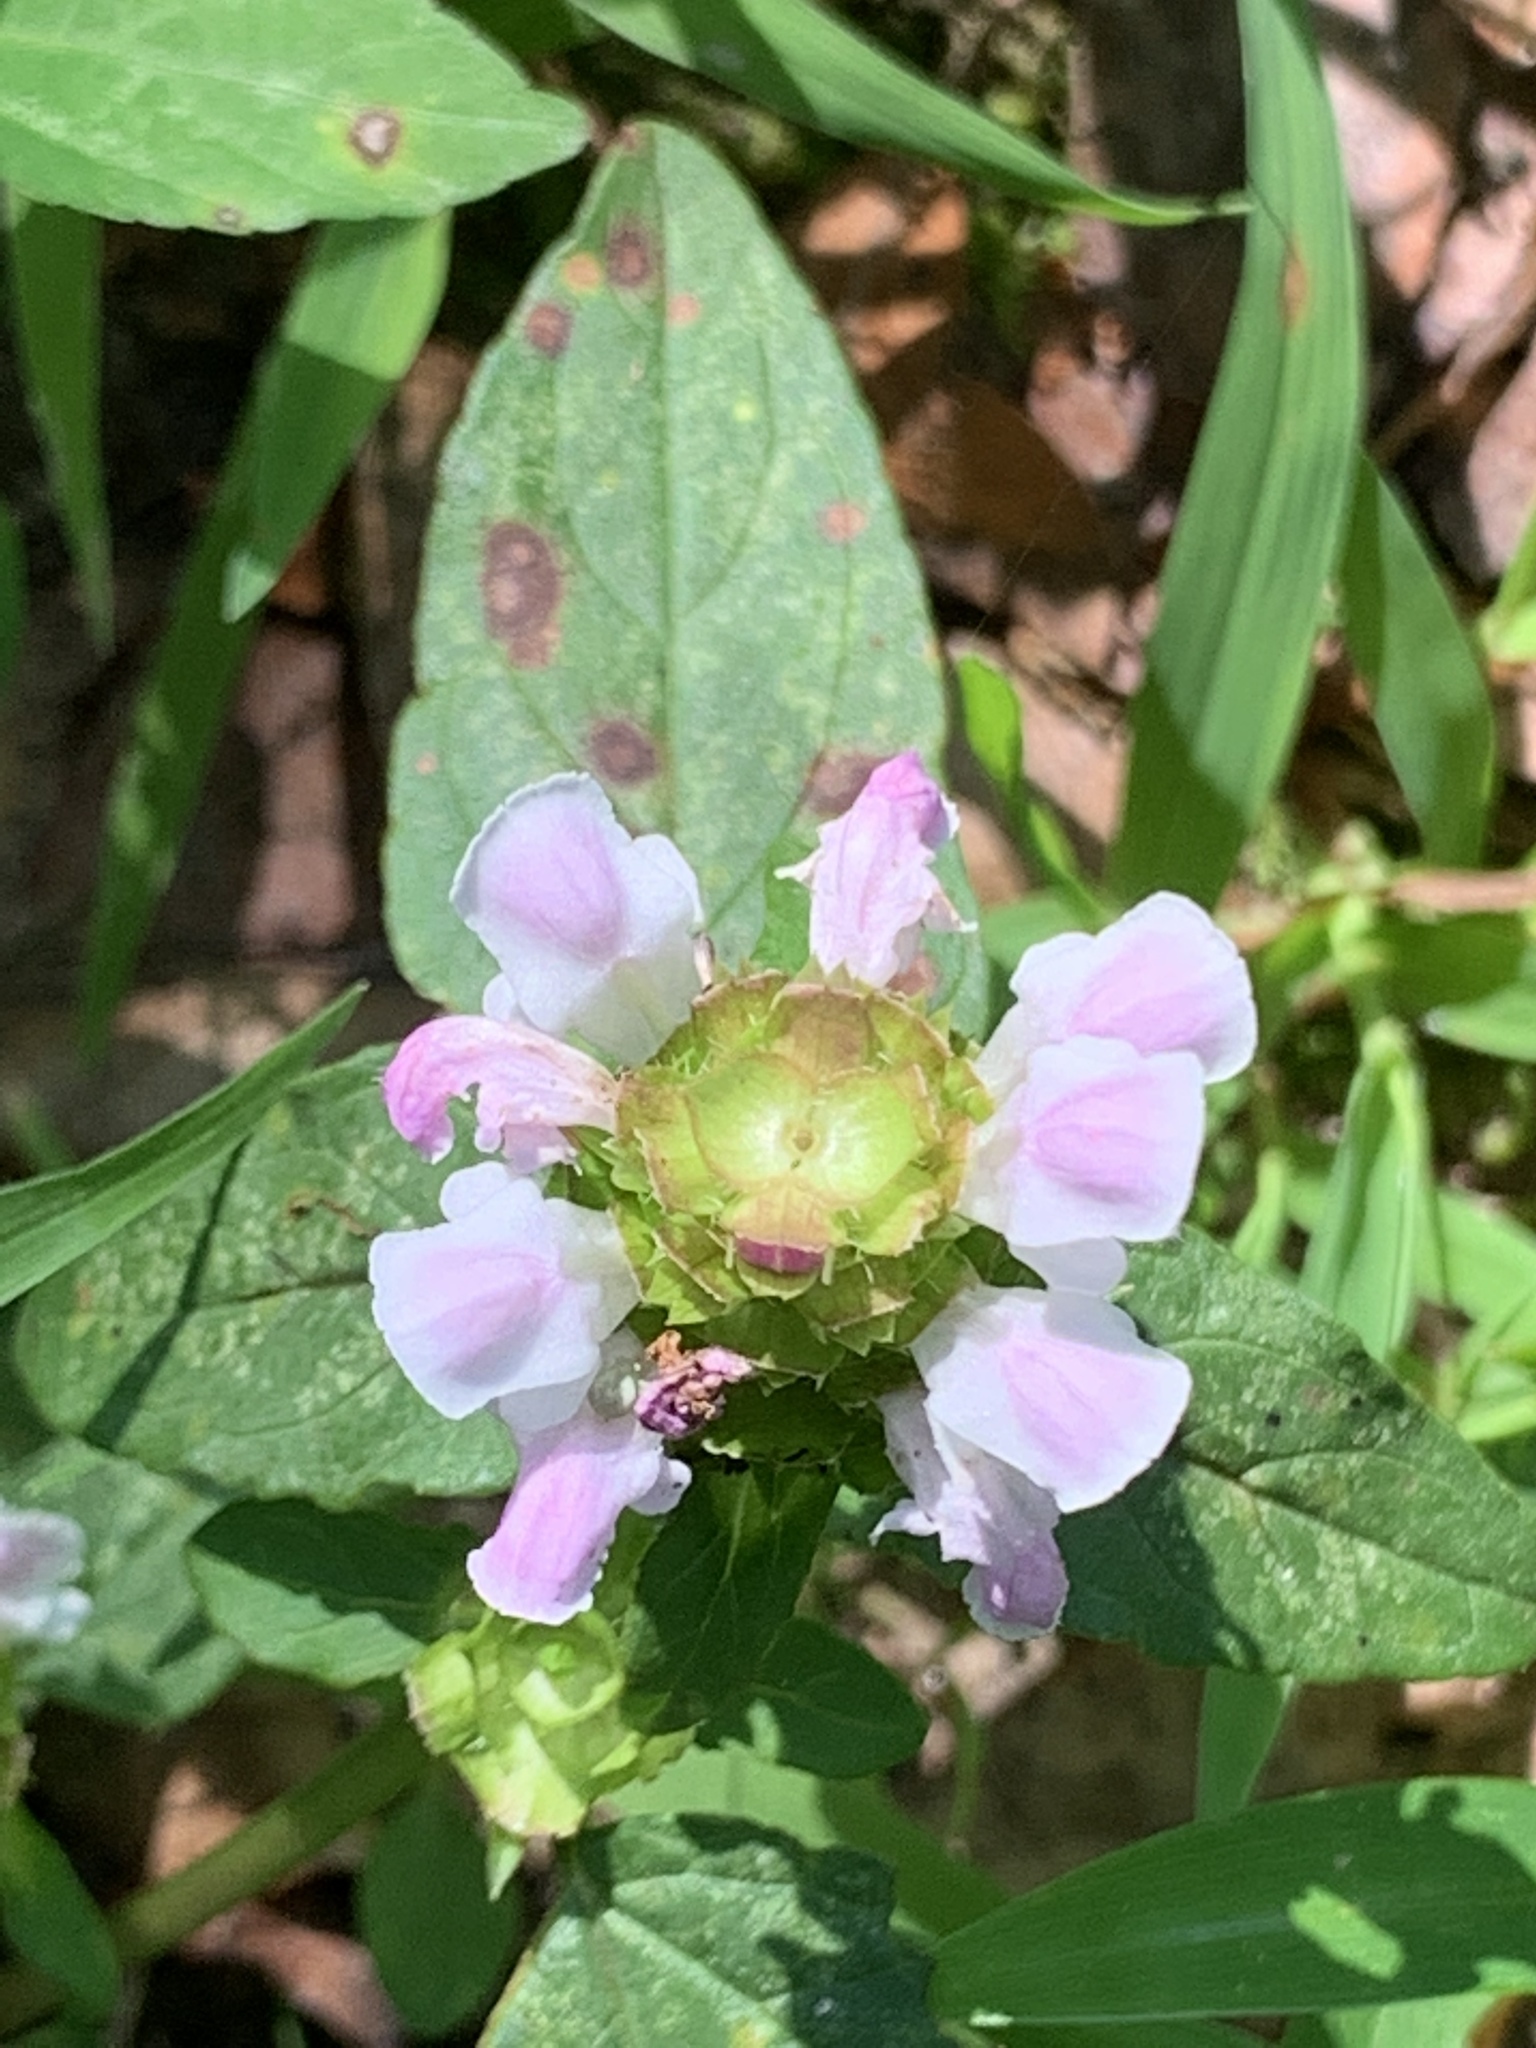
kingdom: Plantae
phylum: Tracheophyta
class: Magnoliopsida
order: Lamiales
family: Lamiaceae
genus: Prunella
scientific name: Prunella vulgaris
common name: Heal-all
